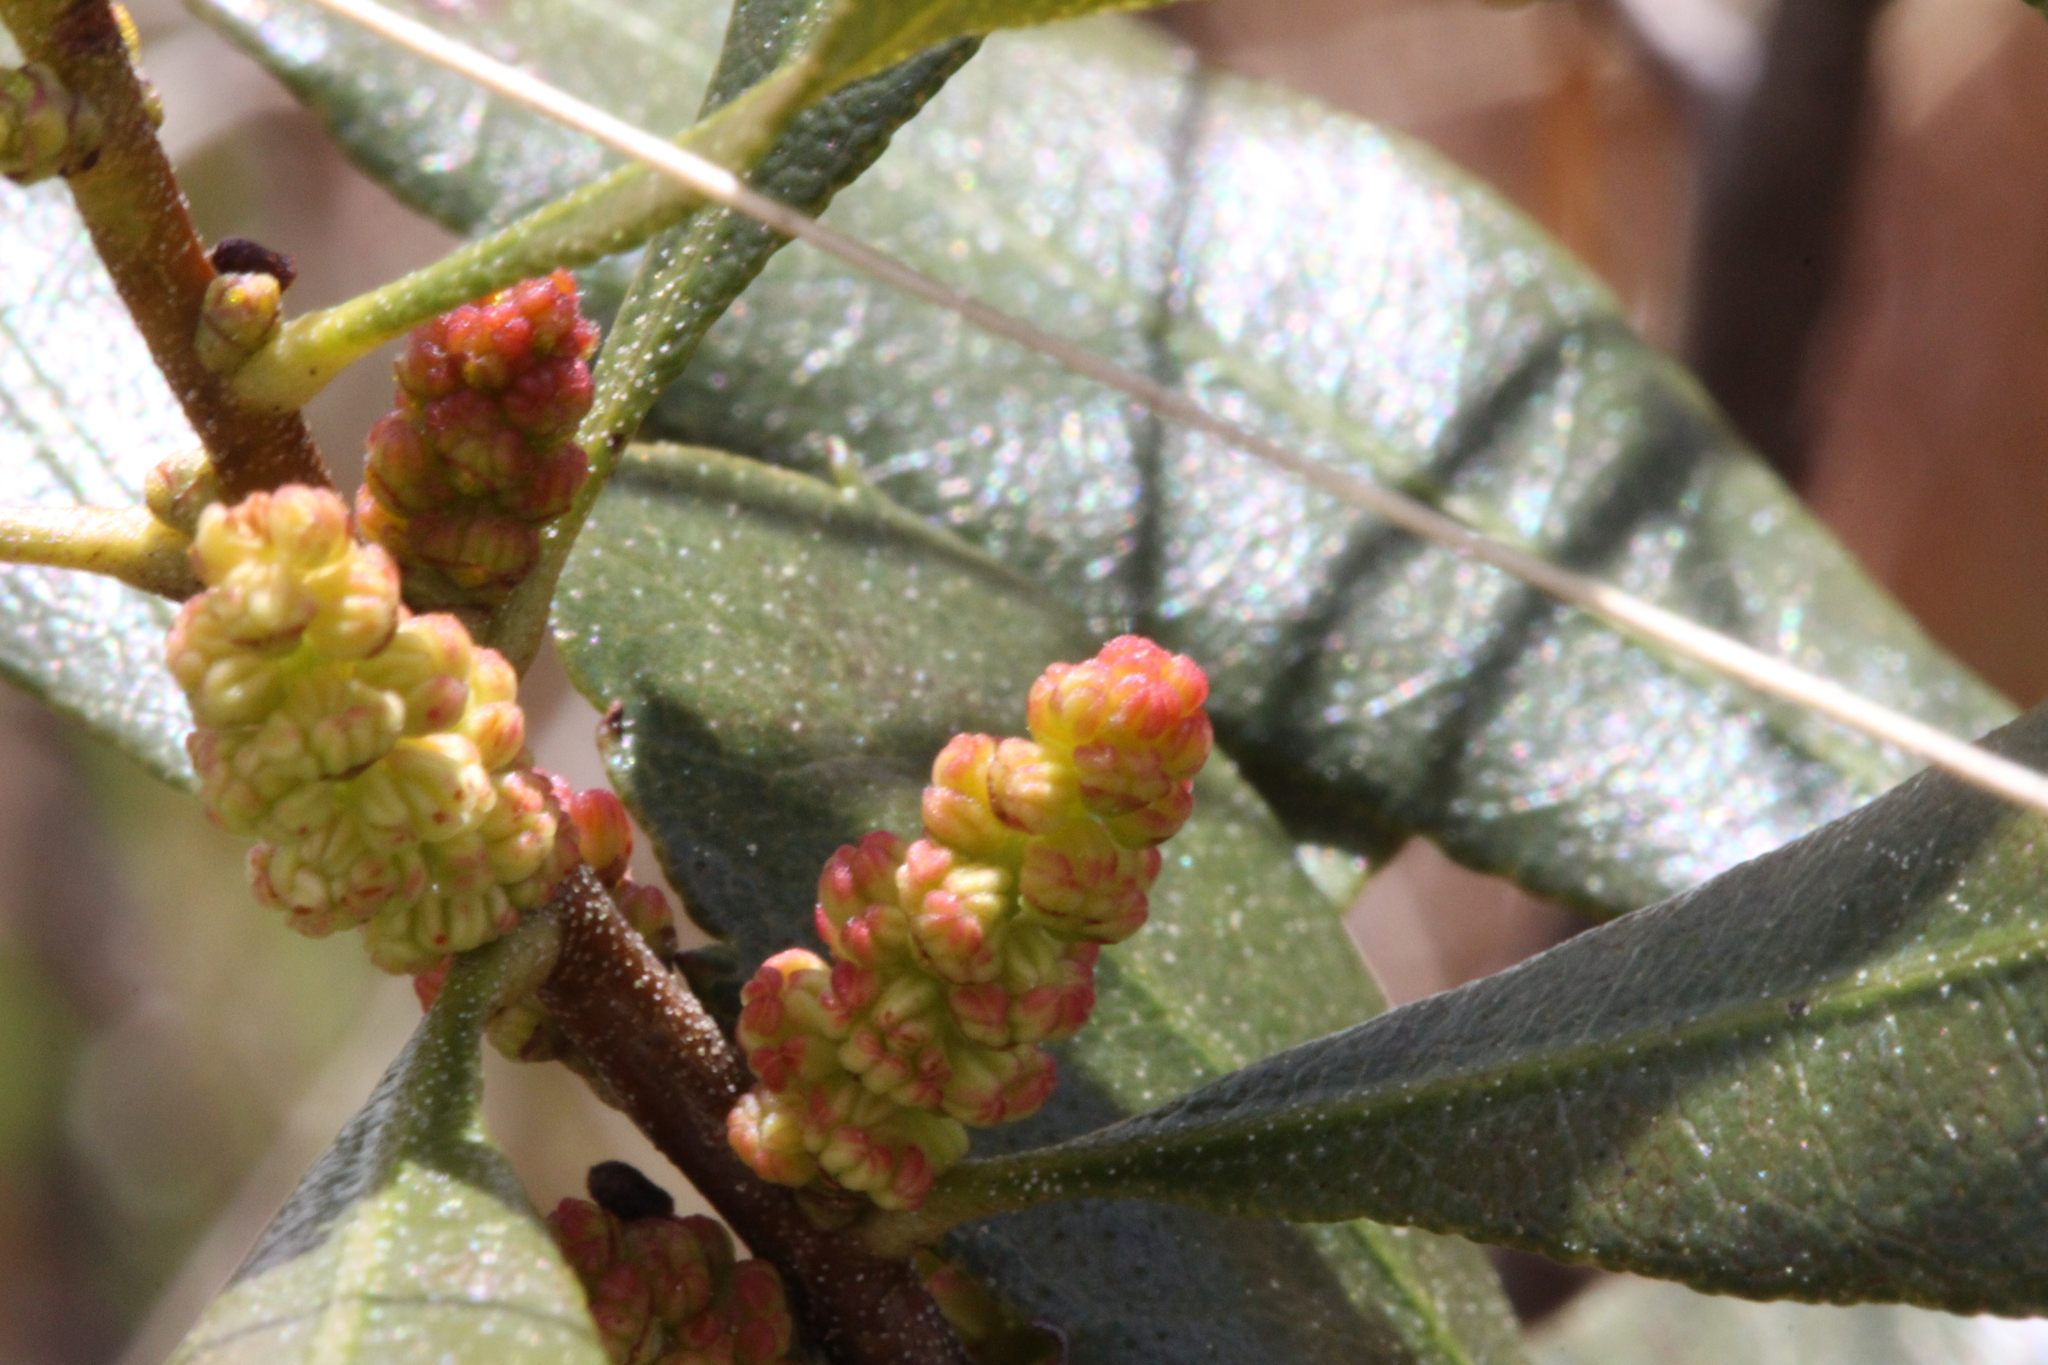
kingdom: Plantae
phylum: Tracheophyta
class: Magnoliopsida
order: Fagales
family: Myricaceae
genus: Morella
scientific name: Morella cerifera
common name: Wax myrtle
